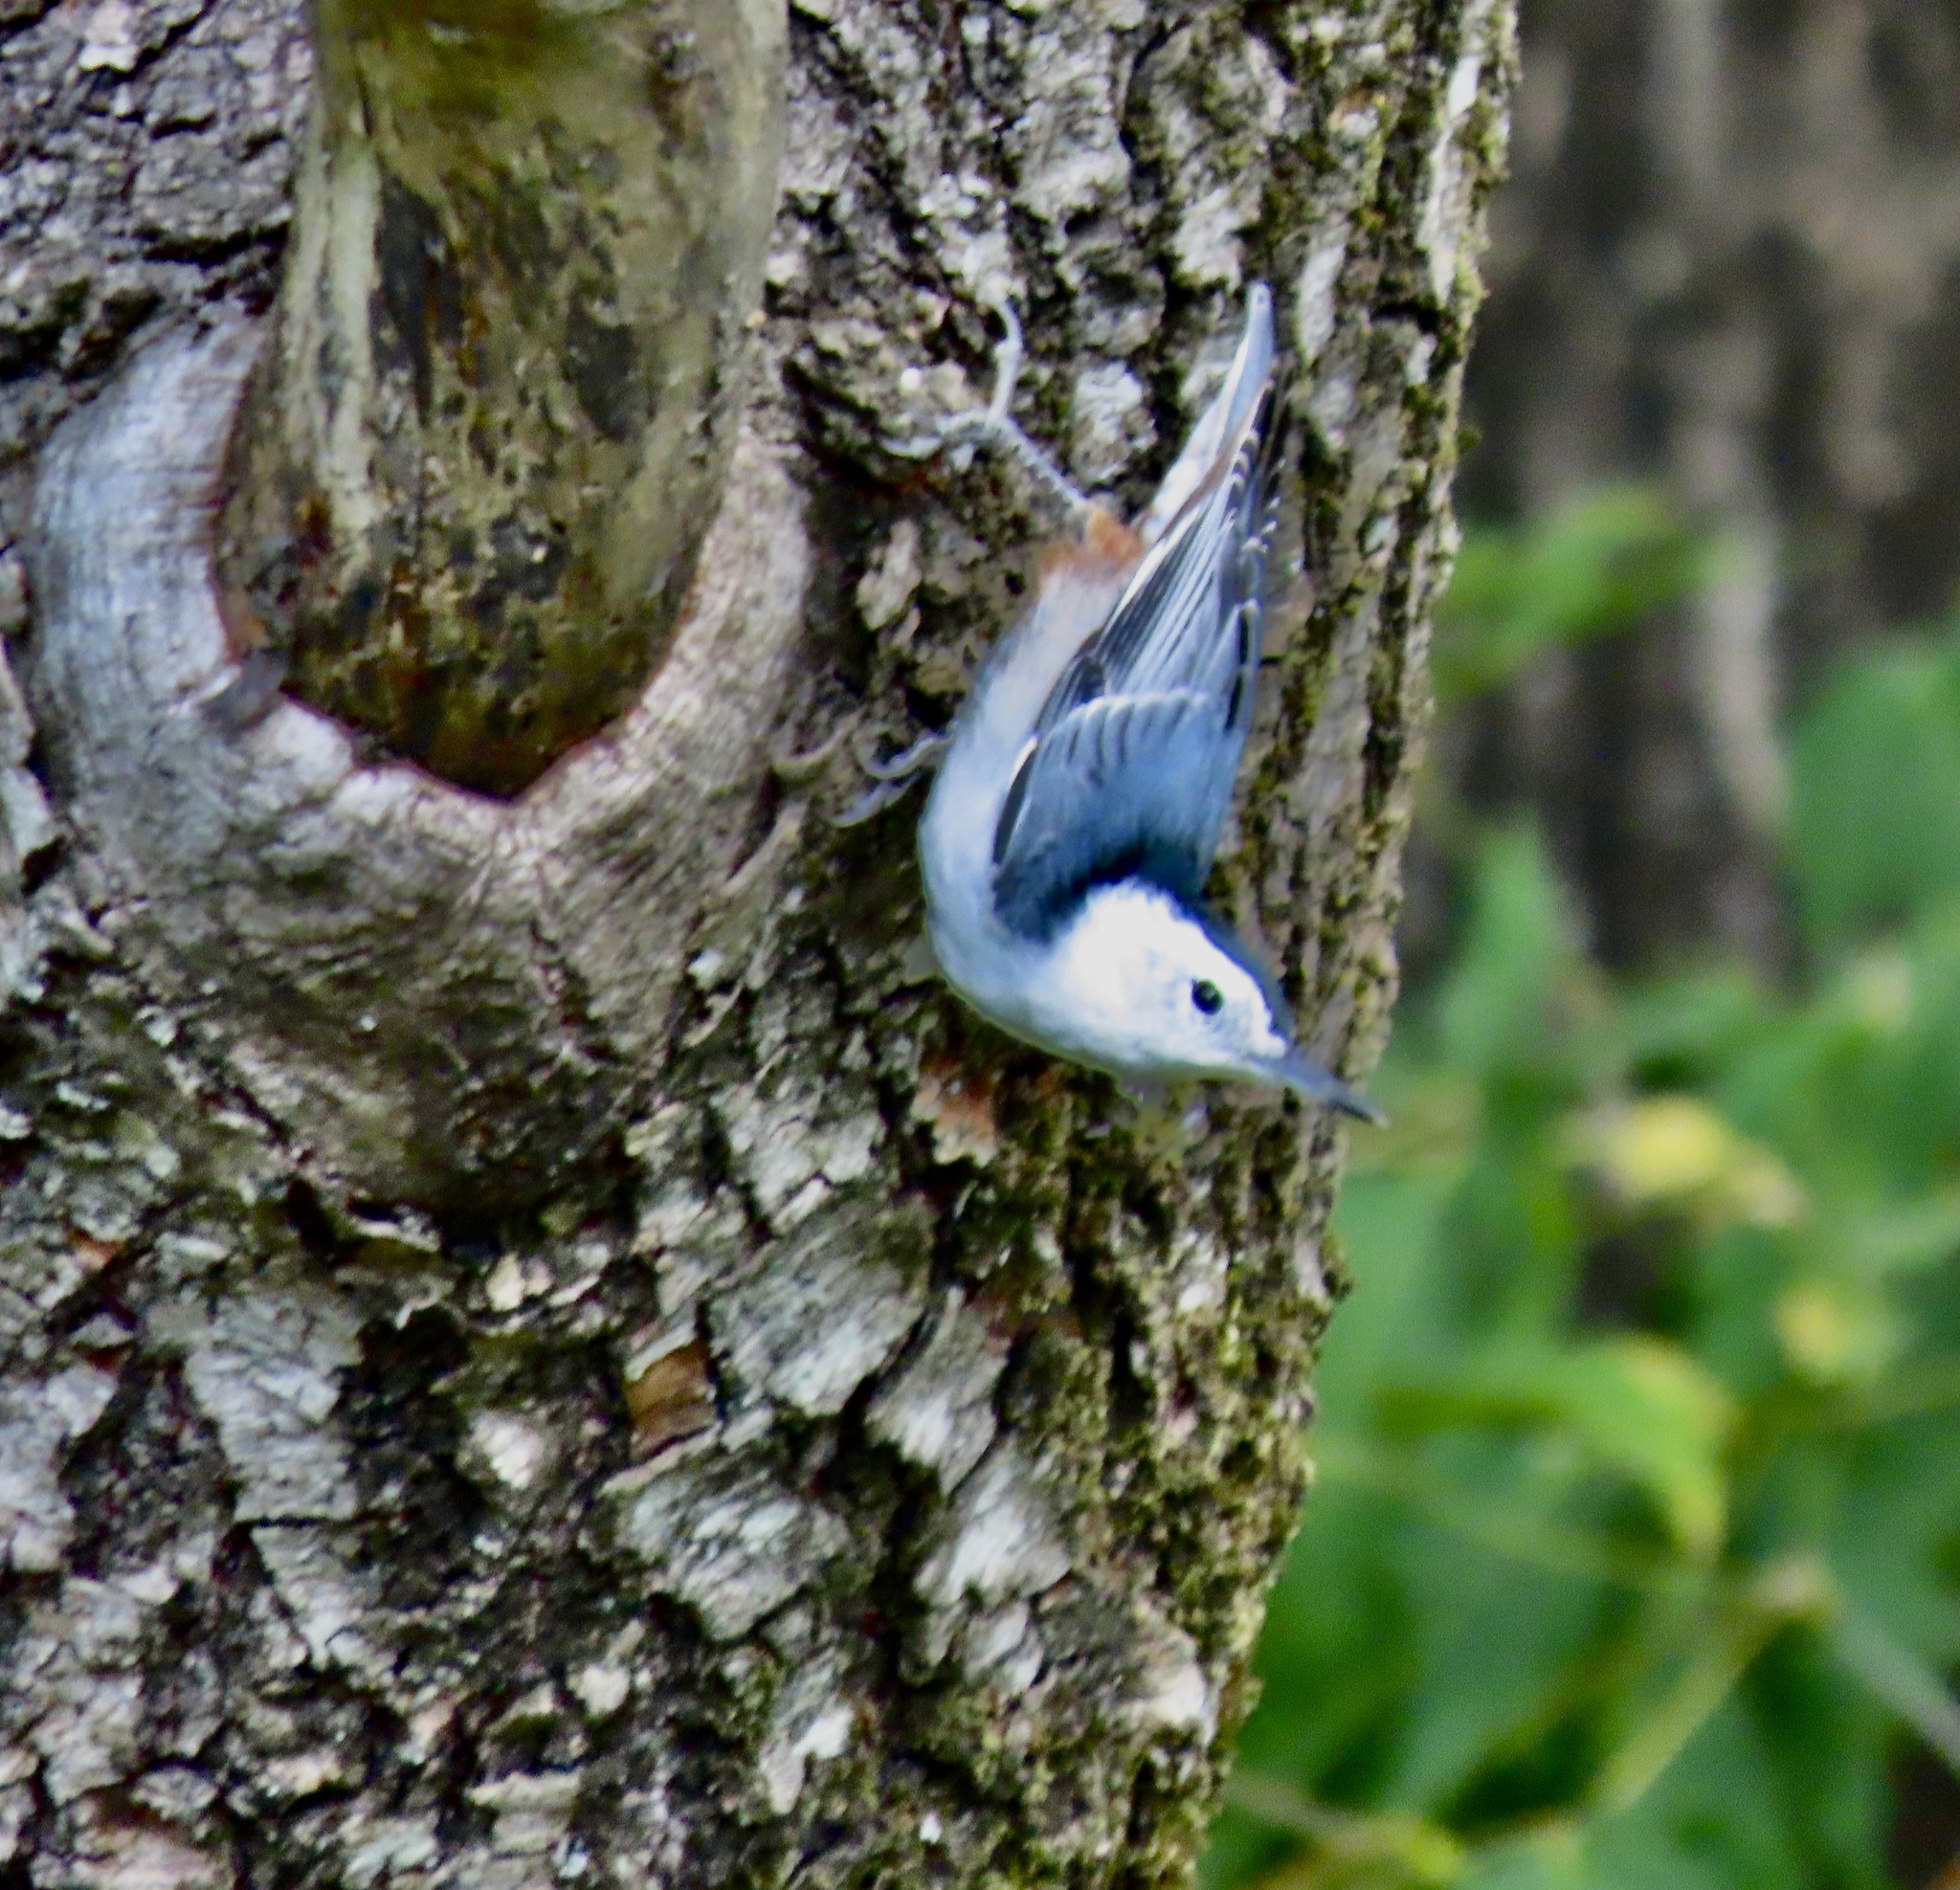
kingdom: Animalia
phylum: Chordata
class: Aves
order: Passeriformes
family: Sittidae
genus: Sitta
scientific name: Sitta carolinensis
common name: White-breasted nuthatch
